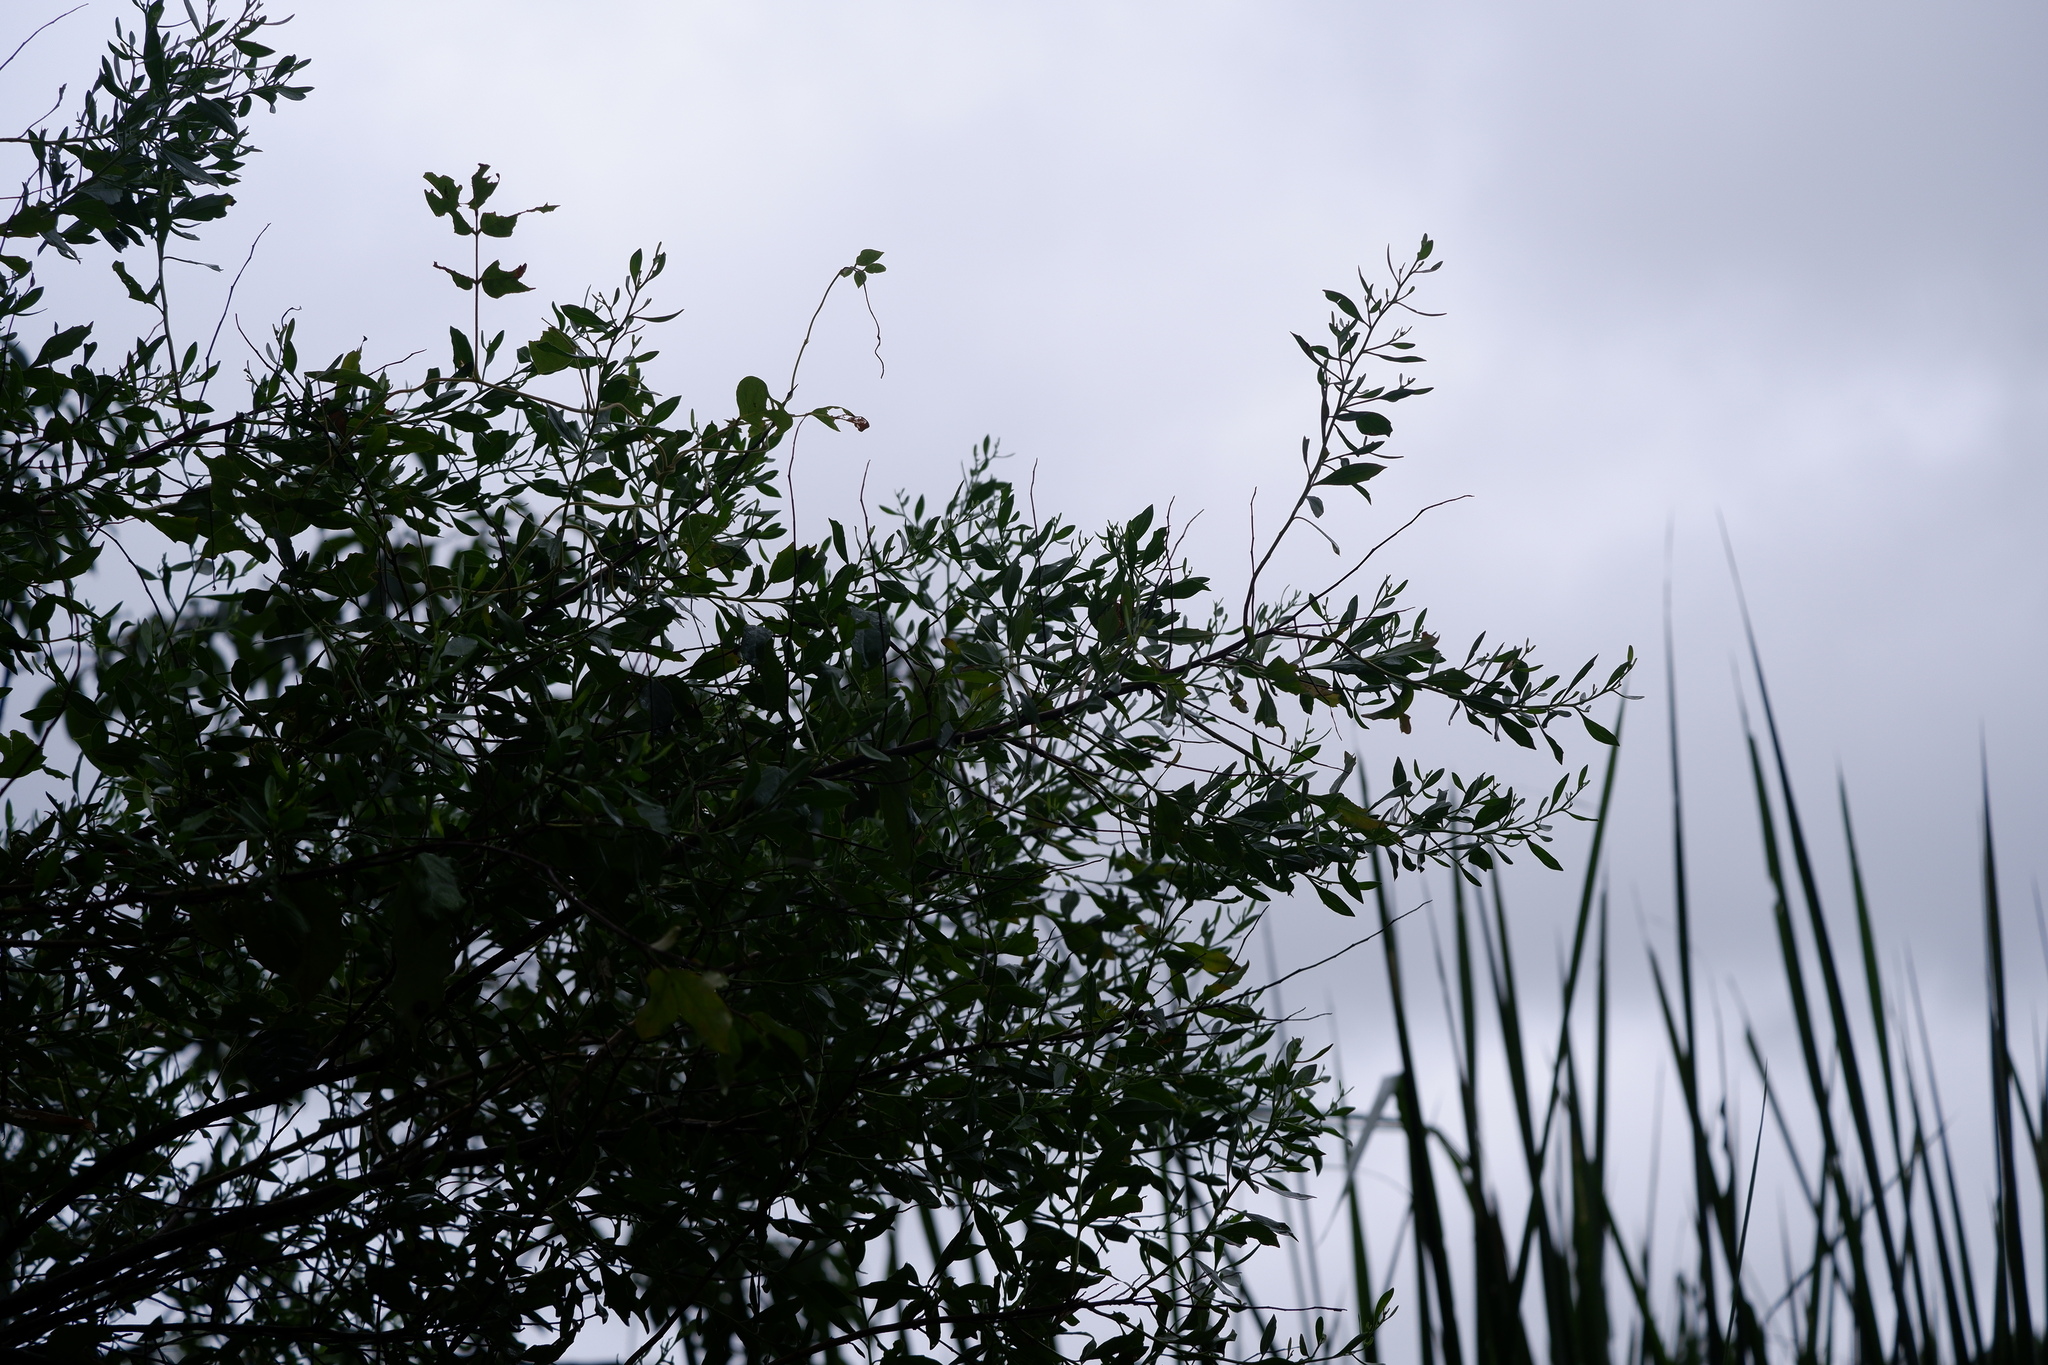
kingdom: Plantae
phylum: Tracheophyta
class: Magnoliopsida
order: Asterales
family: Asteraceae
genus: Baccharis
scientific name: Baccharis halimifolia
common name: Eastern baccharis
